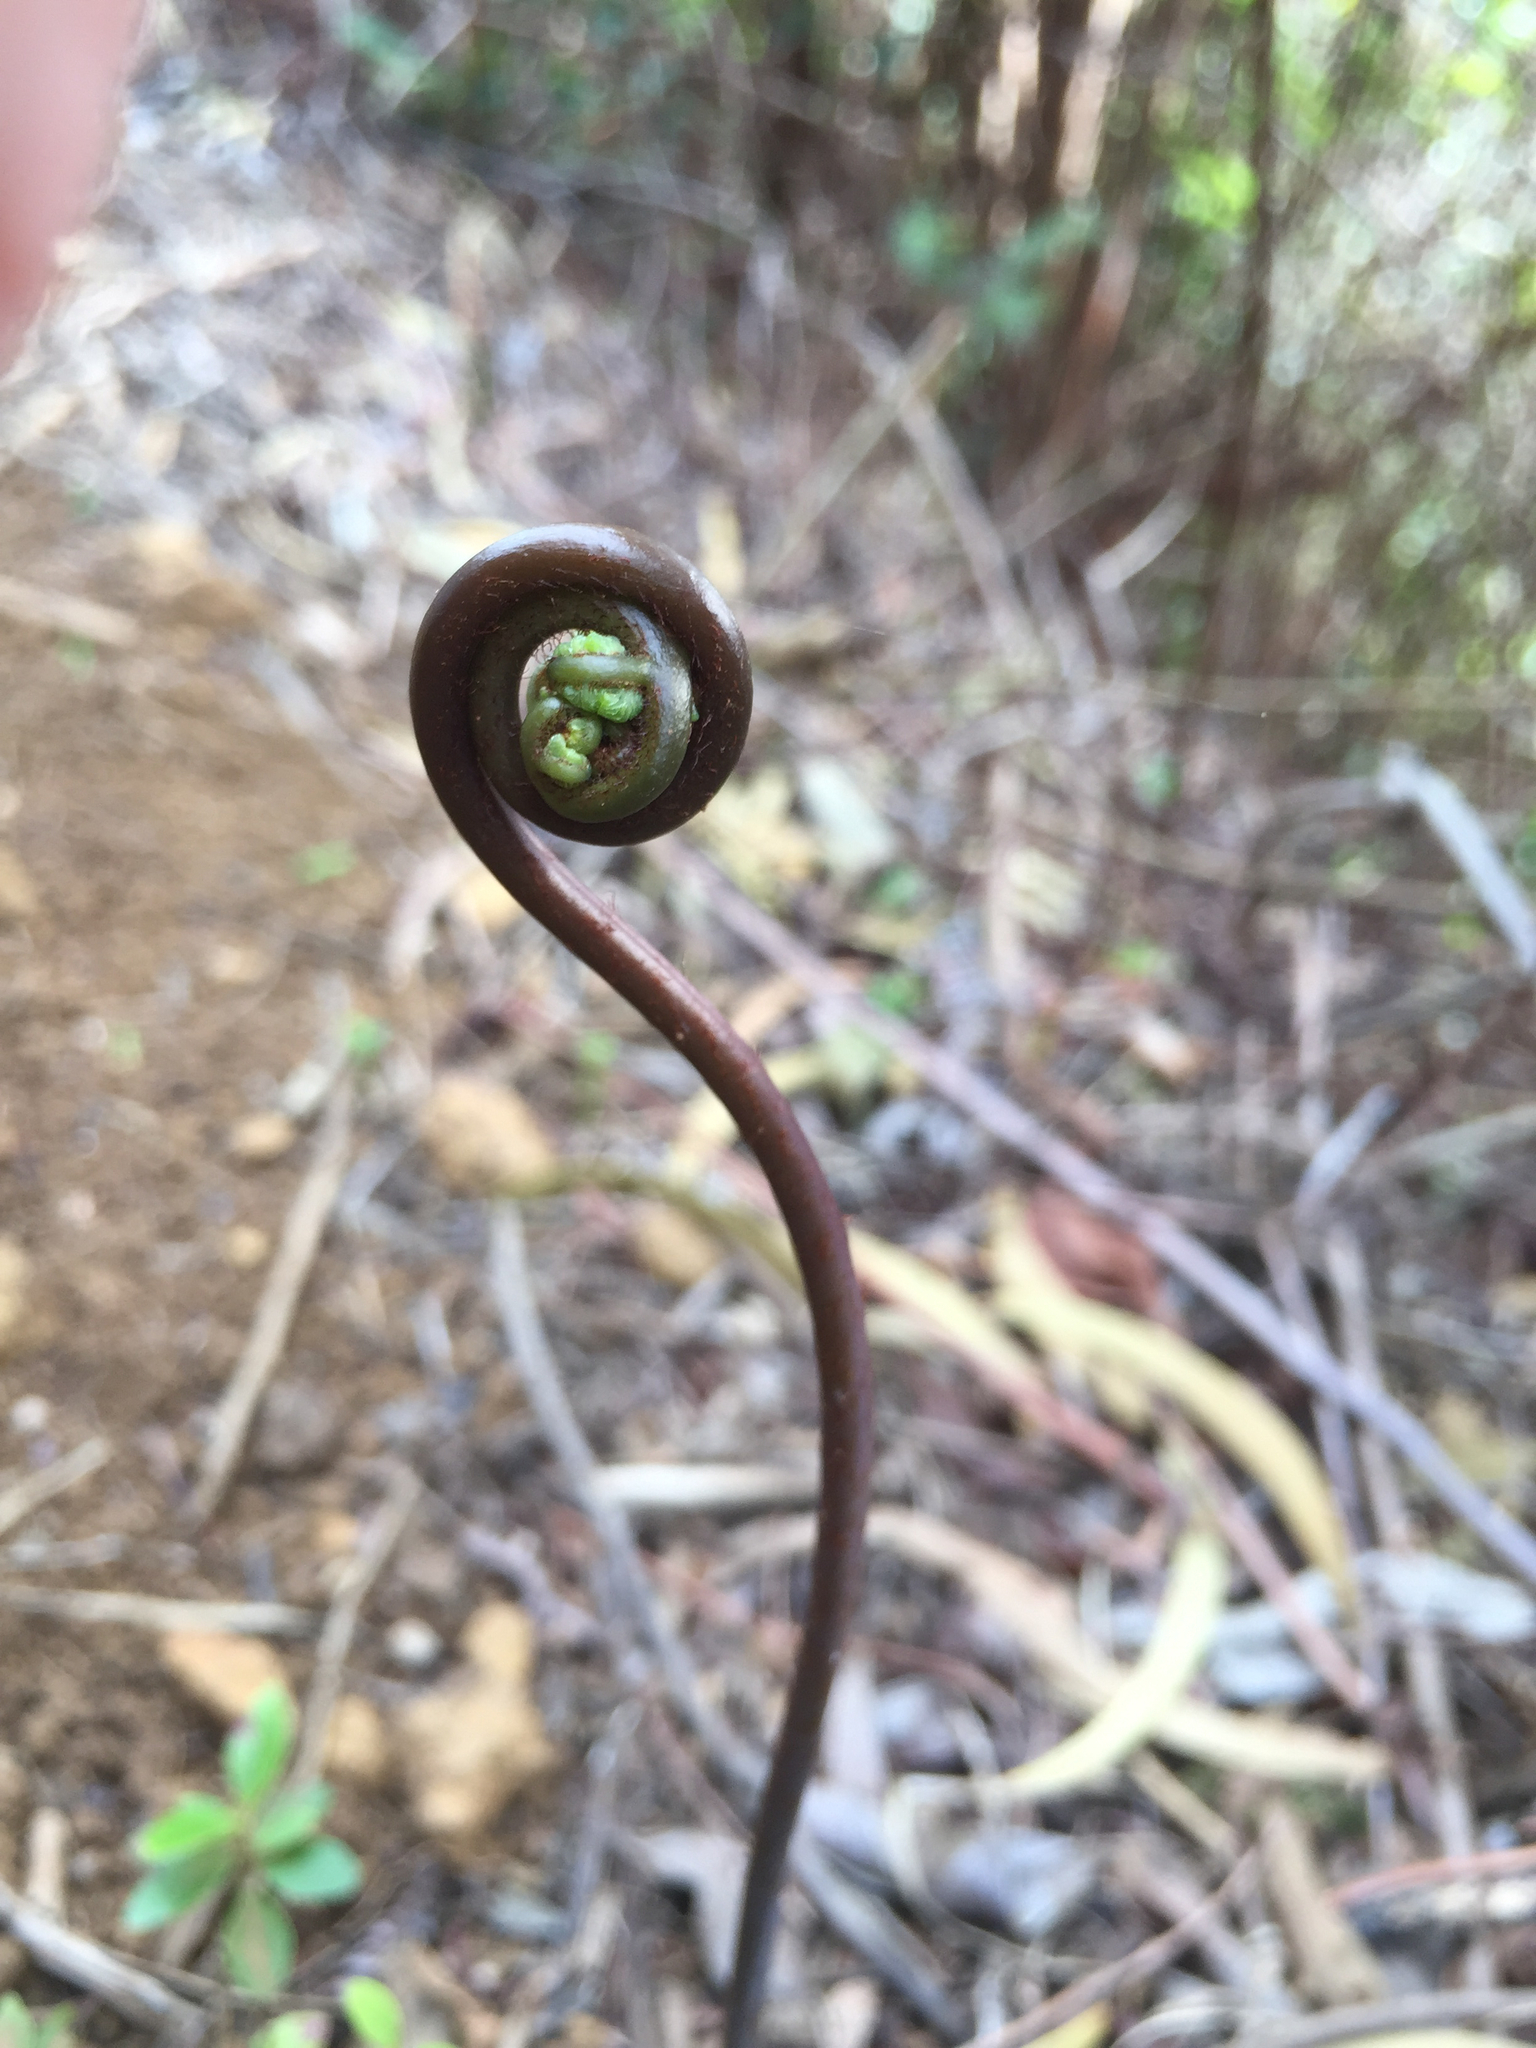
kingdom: Plantae
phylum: Tracheophyta
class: Polypodiopsida
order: Gleicheniales
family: Gleicheniaceae
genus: Dicranopteris
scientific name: Dicranopteris linearis
